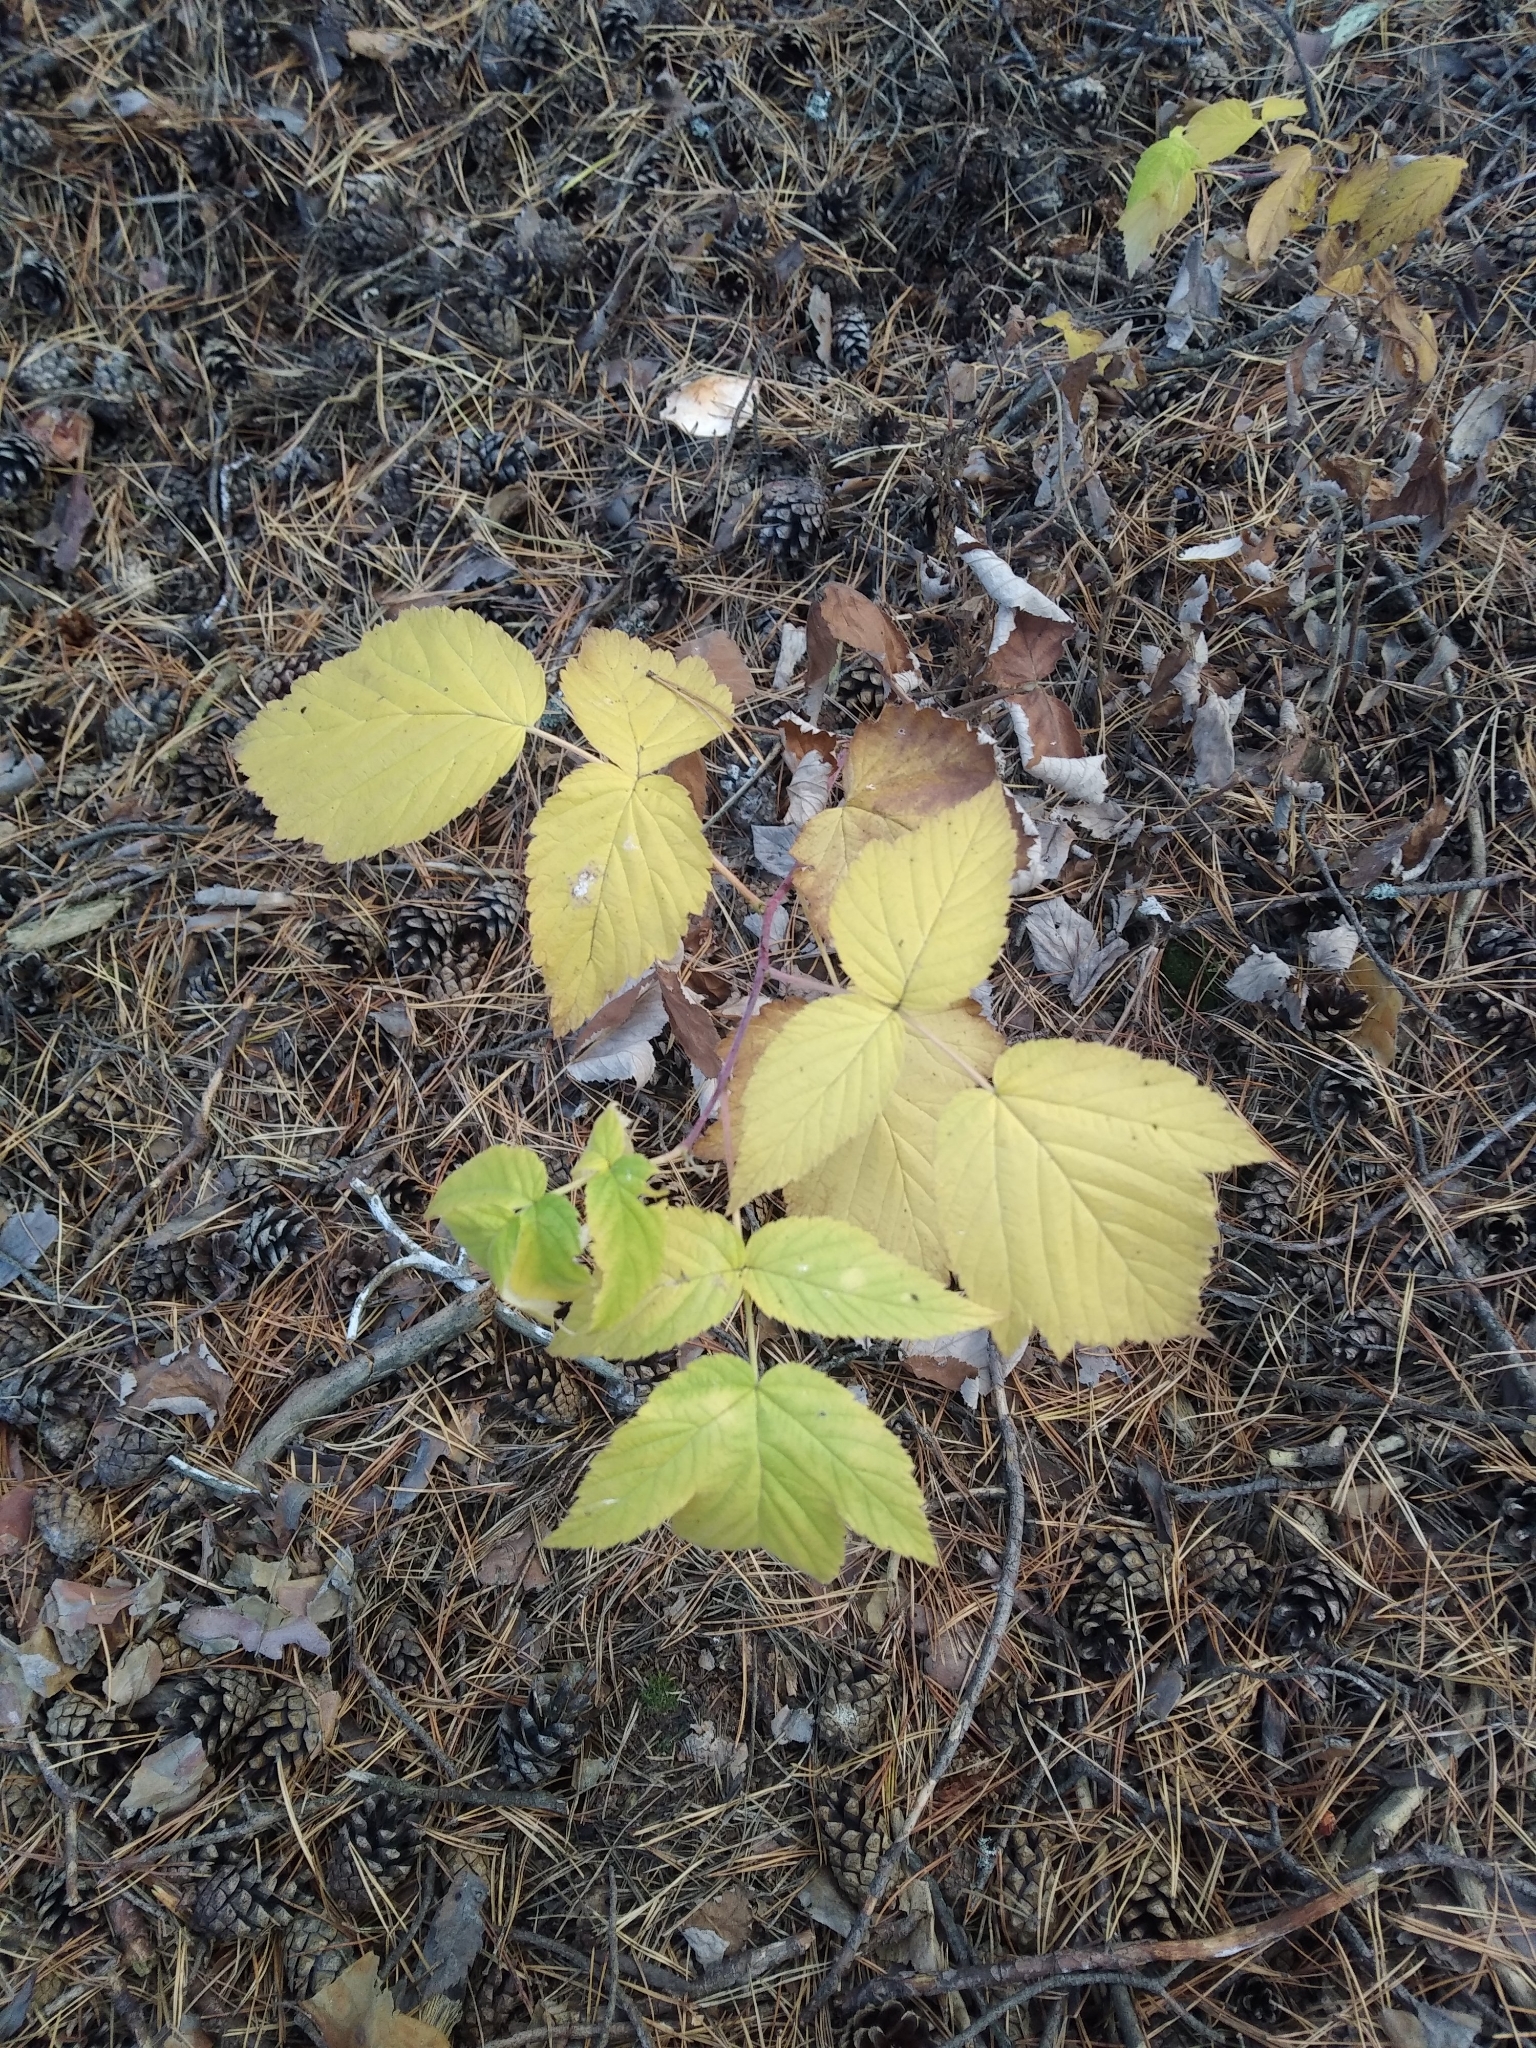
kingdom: Plantae
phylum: Tracheophyta
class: Magnoliopsida
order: Rosales
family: Rosaceae
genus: Rubus
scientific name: Rubus idaeus
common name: Raspberry
